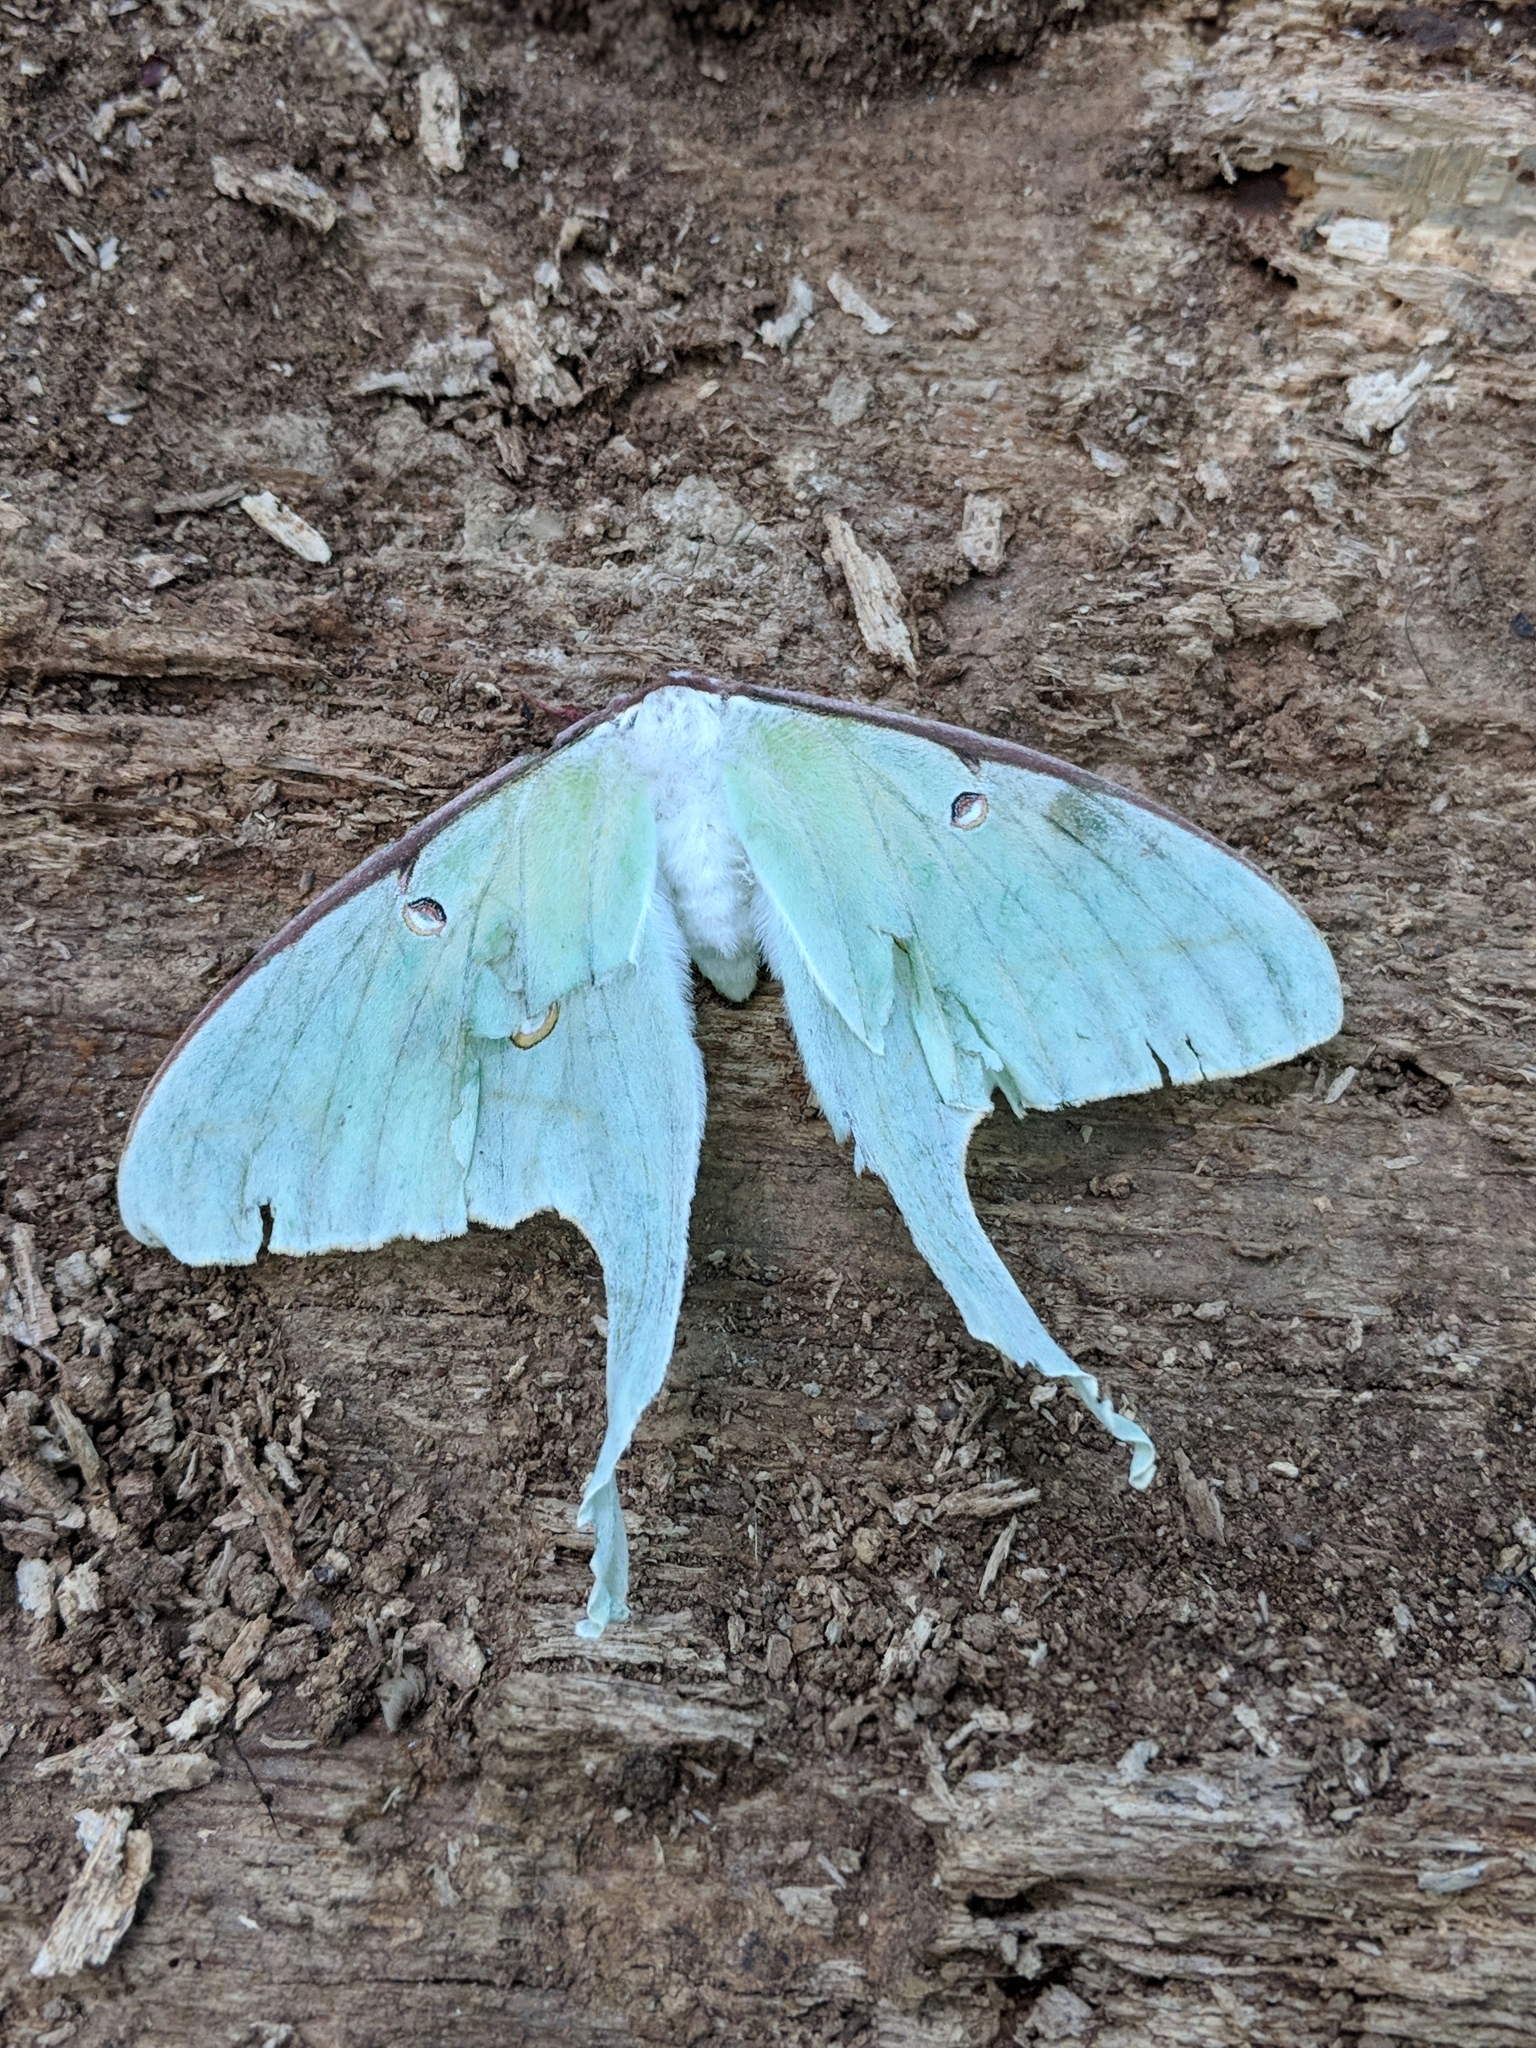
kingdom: Animalia
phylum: Arthropoda
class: Insecta
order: Lepidoptera
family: Saturniidae
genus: Actias
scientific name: Actias luna
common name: Luna moth
